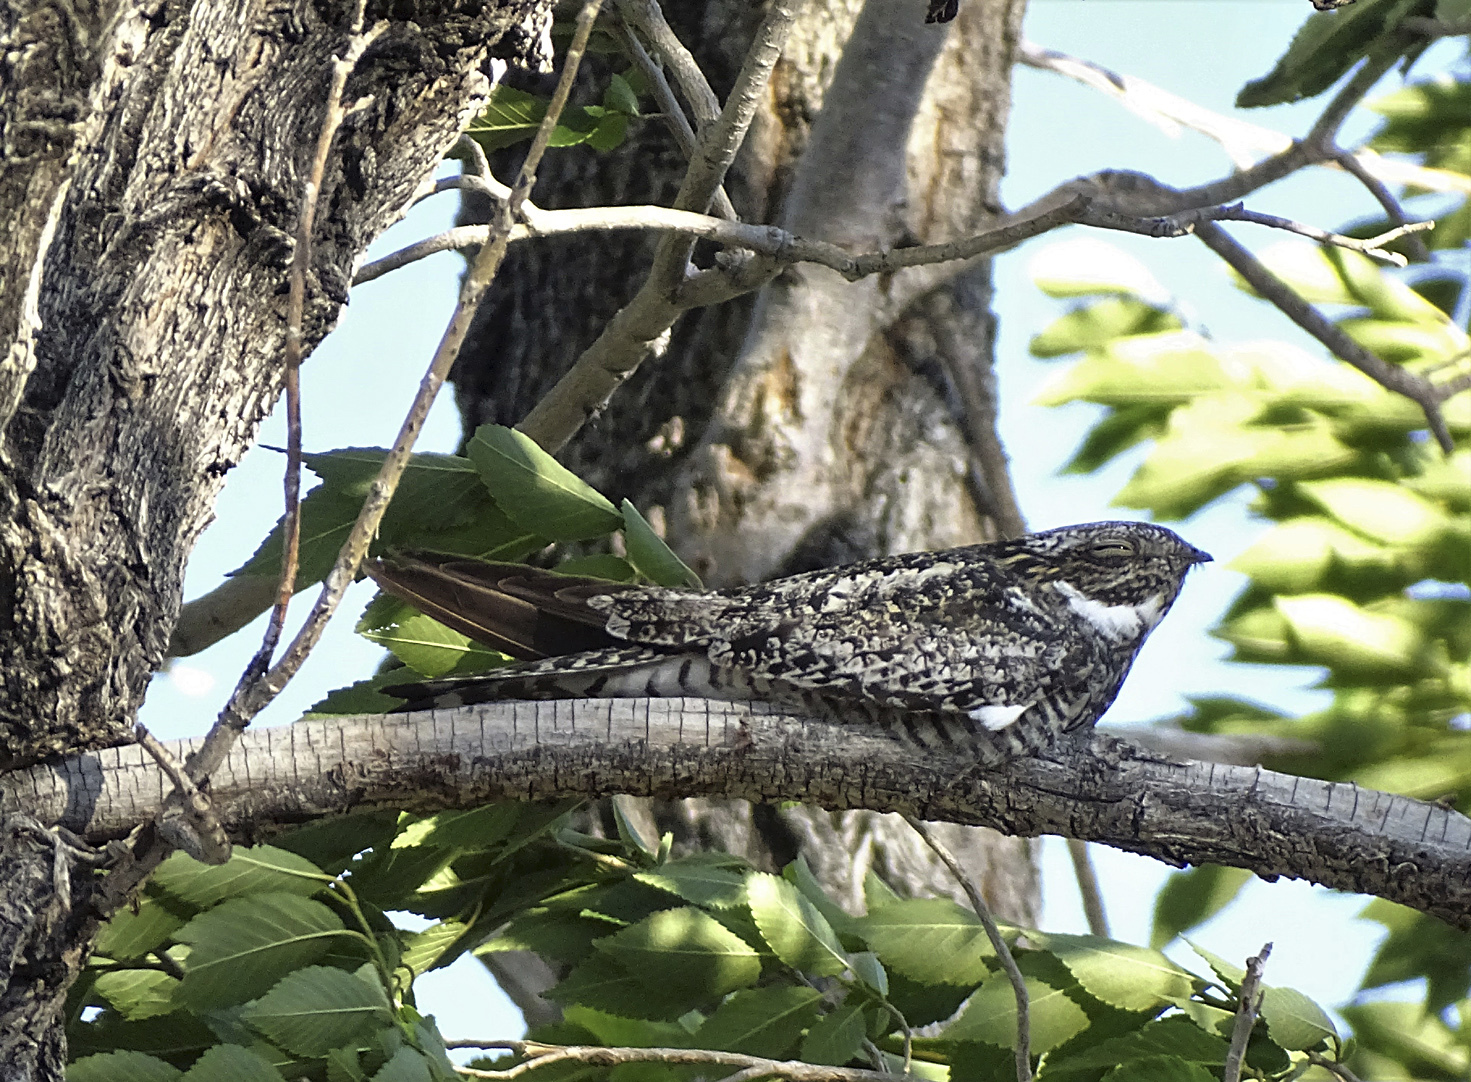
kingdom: Animalia
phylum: Chordata
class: Aves
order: Caprimulgiformes
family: Caprimulgidae
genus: Chordeiles
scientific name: Chordeiles minor
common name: Common nighthawk
